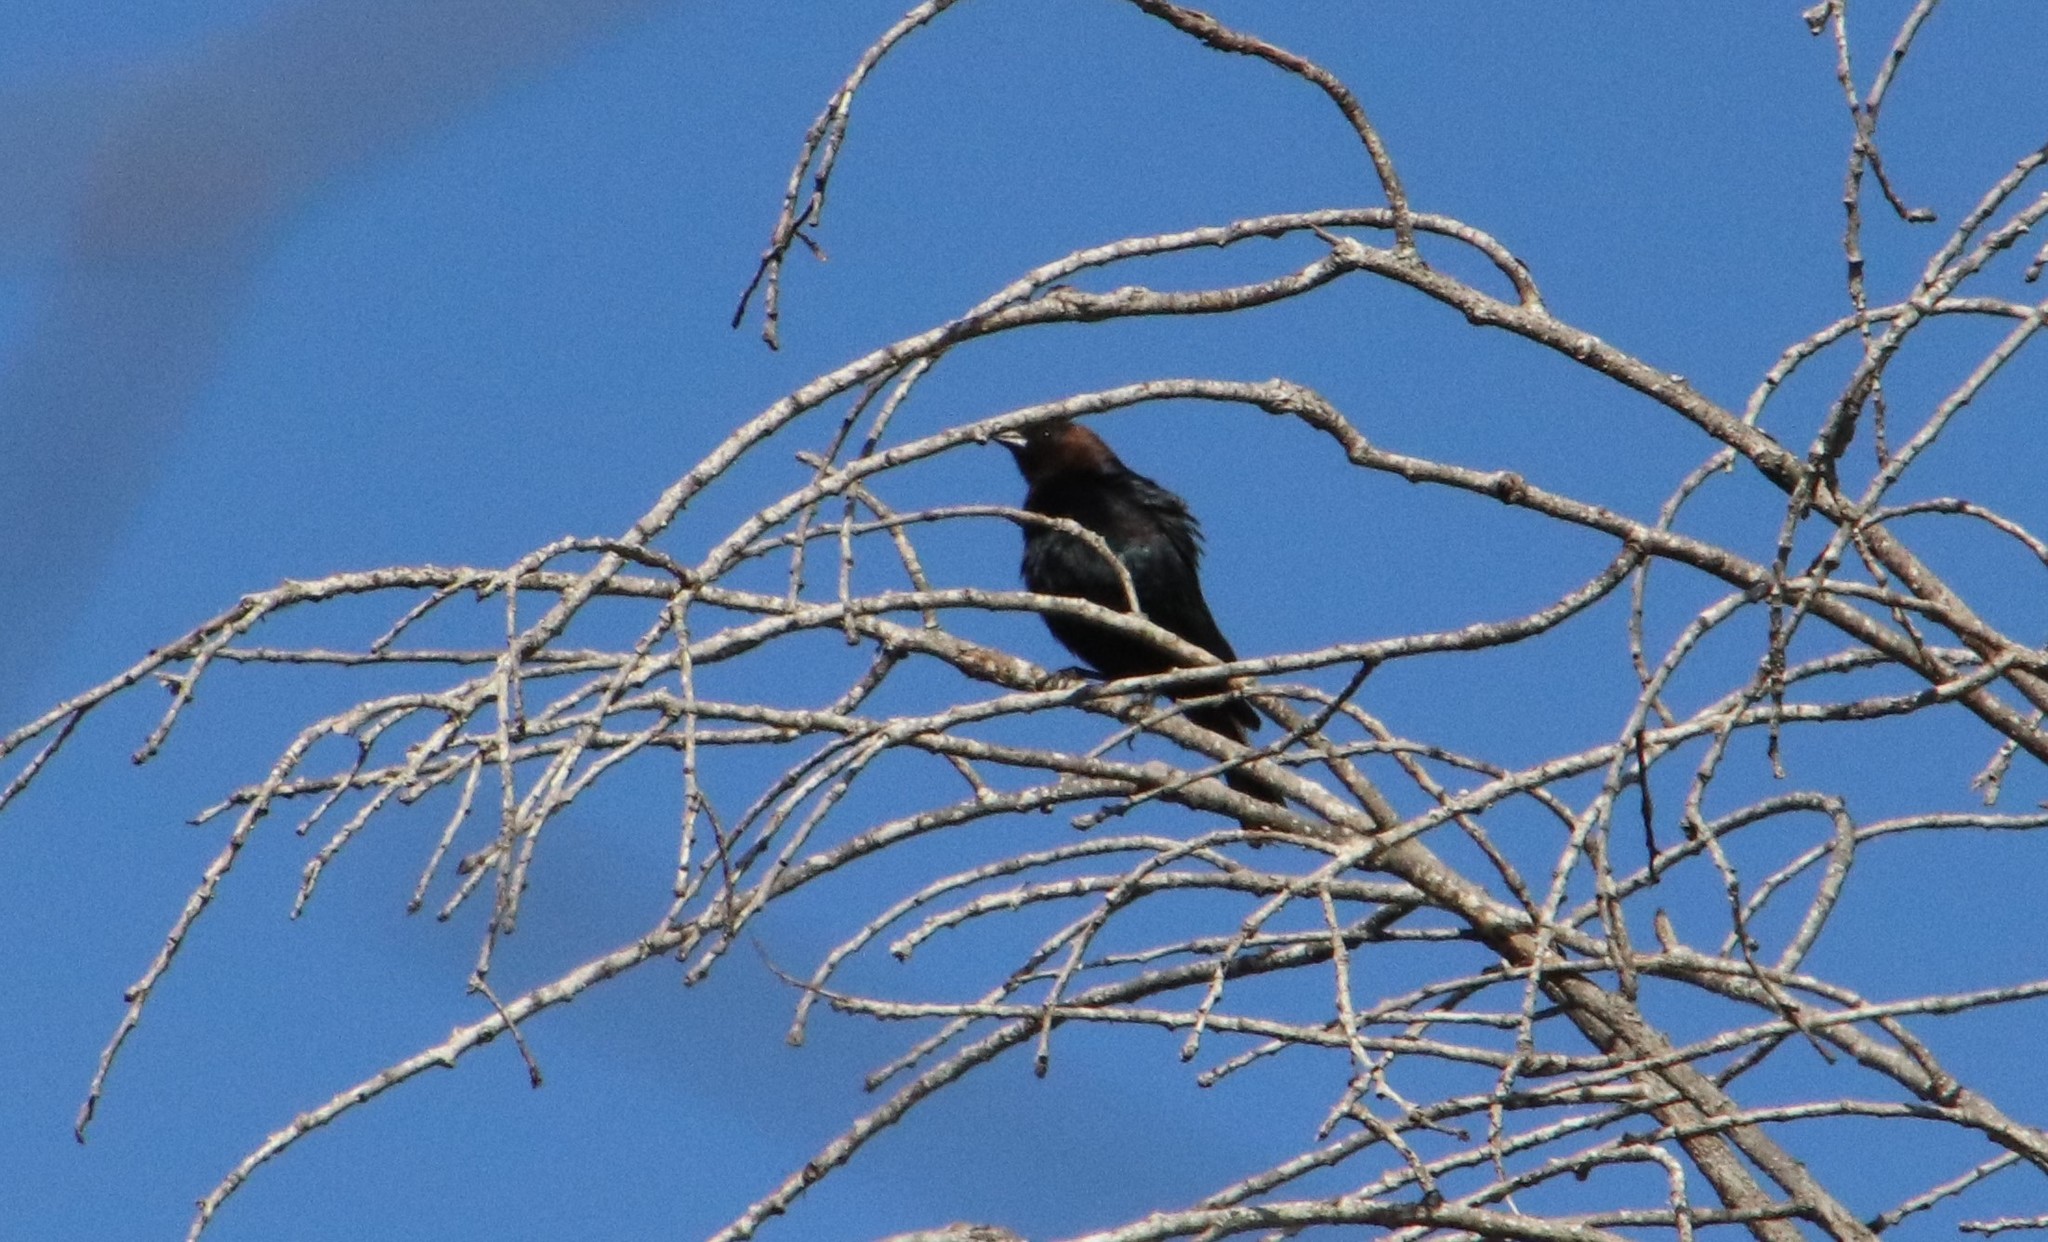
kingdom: Animalia
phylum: Chordata
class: Aves
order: Passeriformes
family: Icteridae
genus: Molothrus
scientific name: Molothrus ater
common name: Brown-headed cowbird
